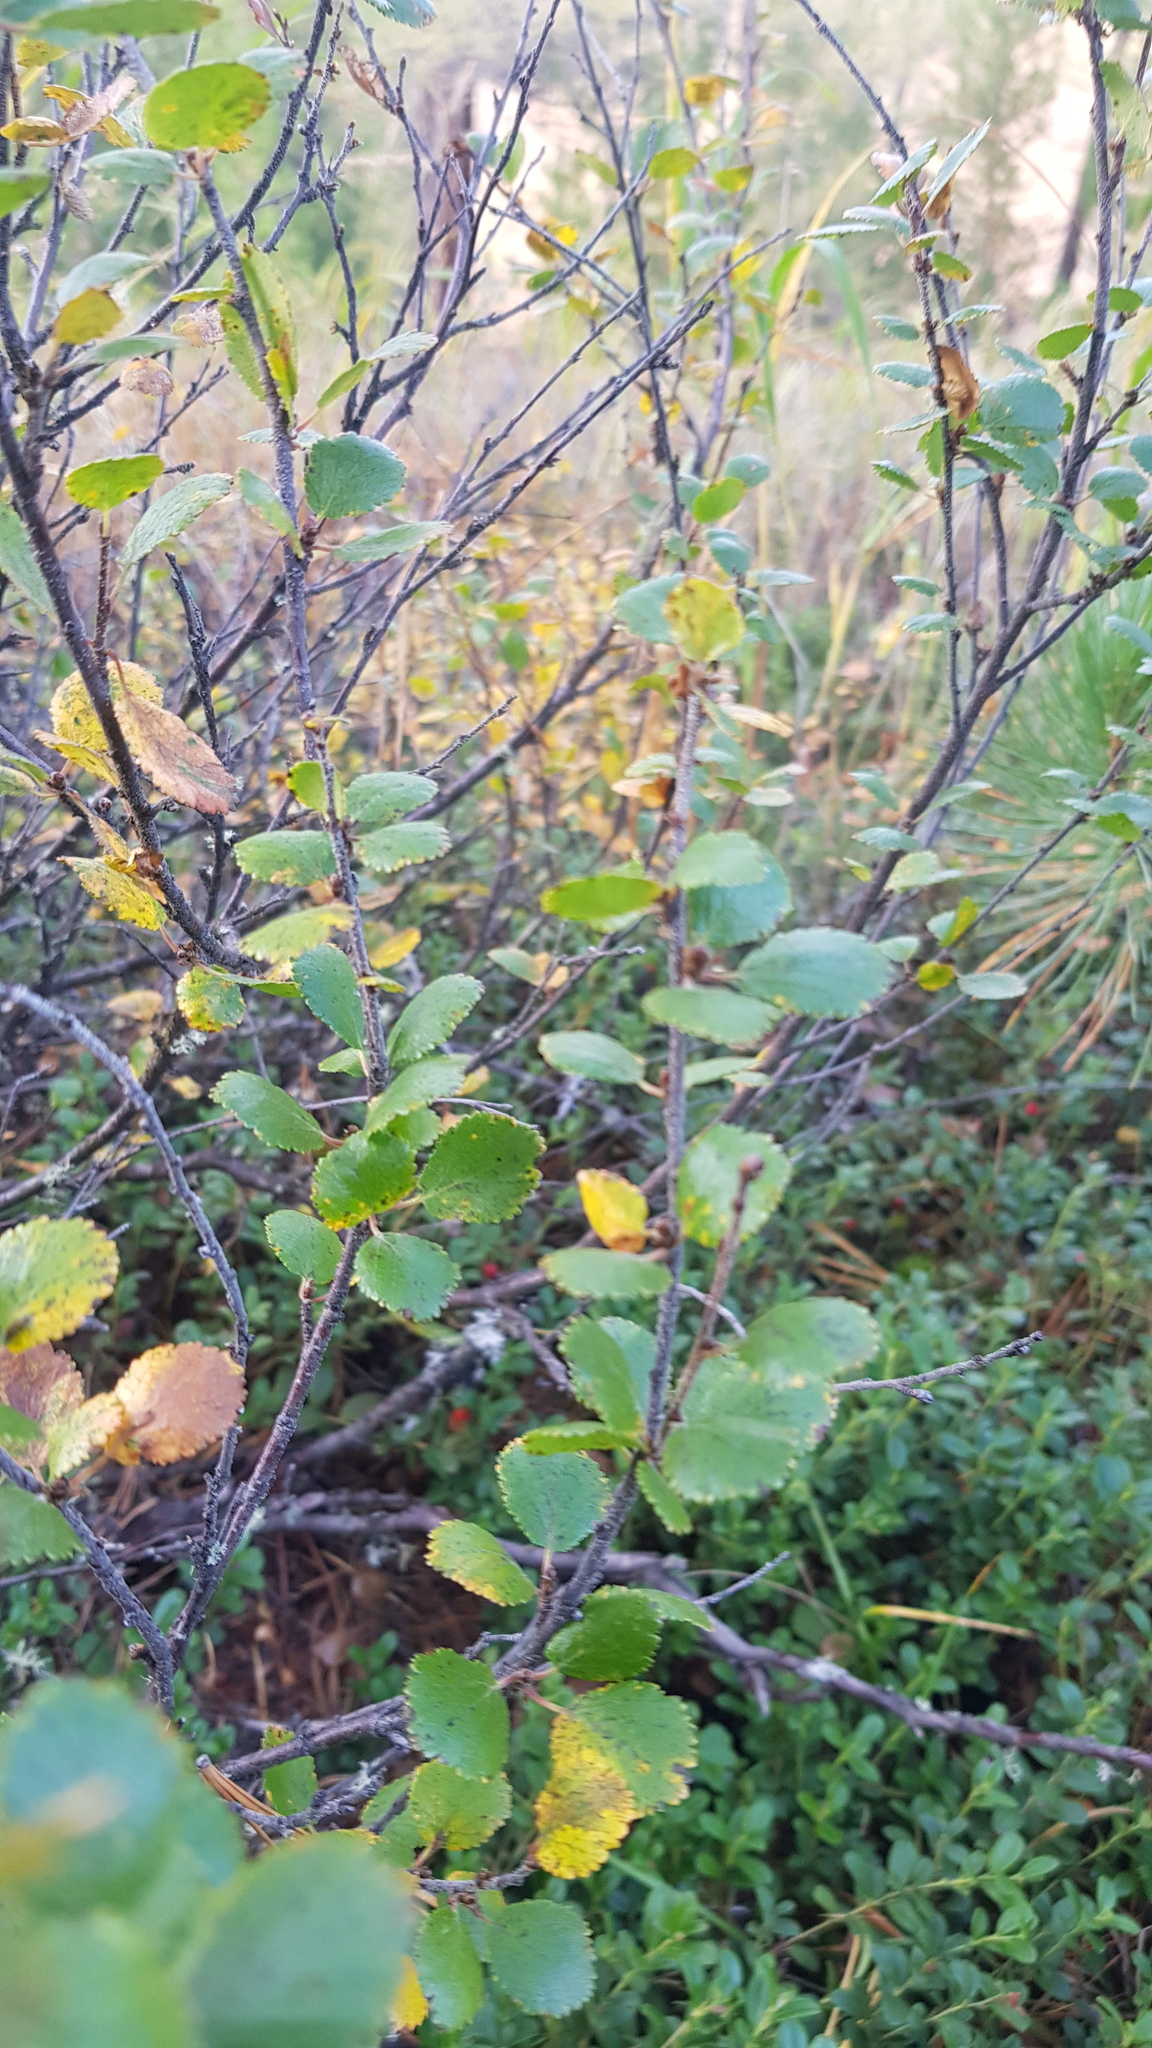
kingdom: Plantae
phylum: Tracheophyta
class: Magnoliopsida
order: Fagales
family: Betulaceae
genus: Betula
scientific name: Betula glandulosa
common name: Dwarf birch
